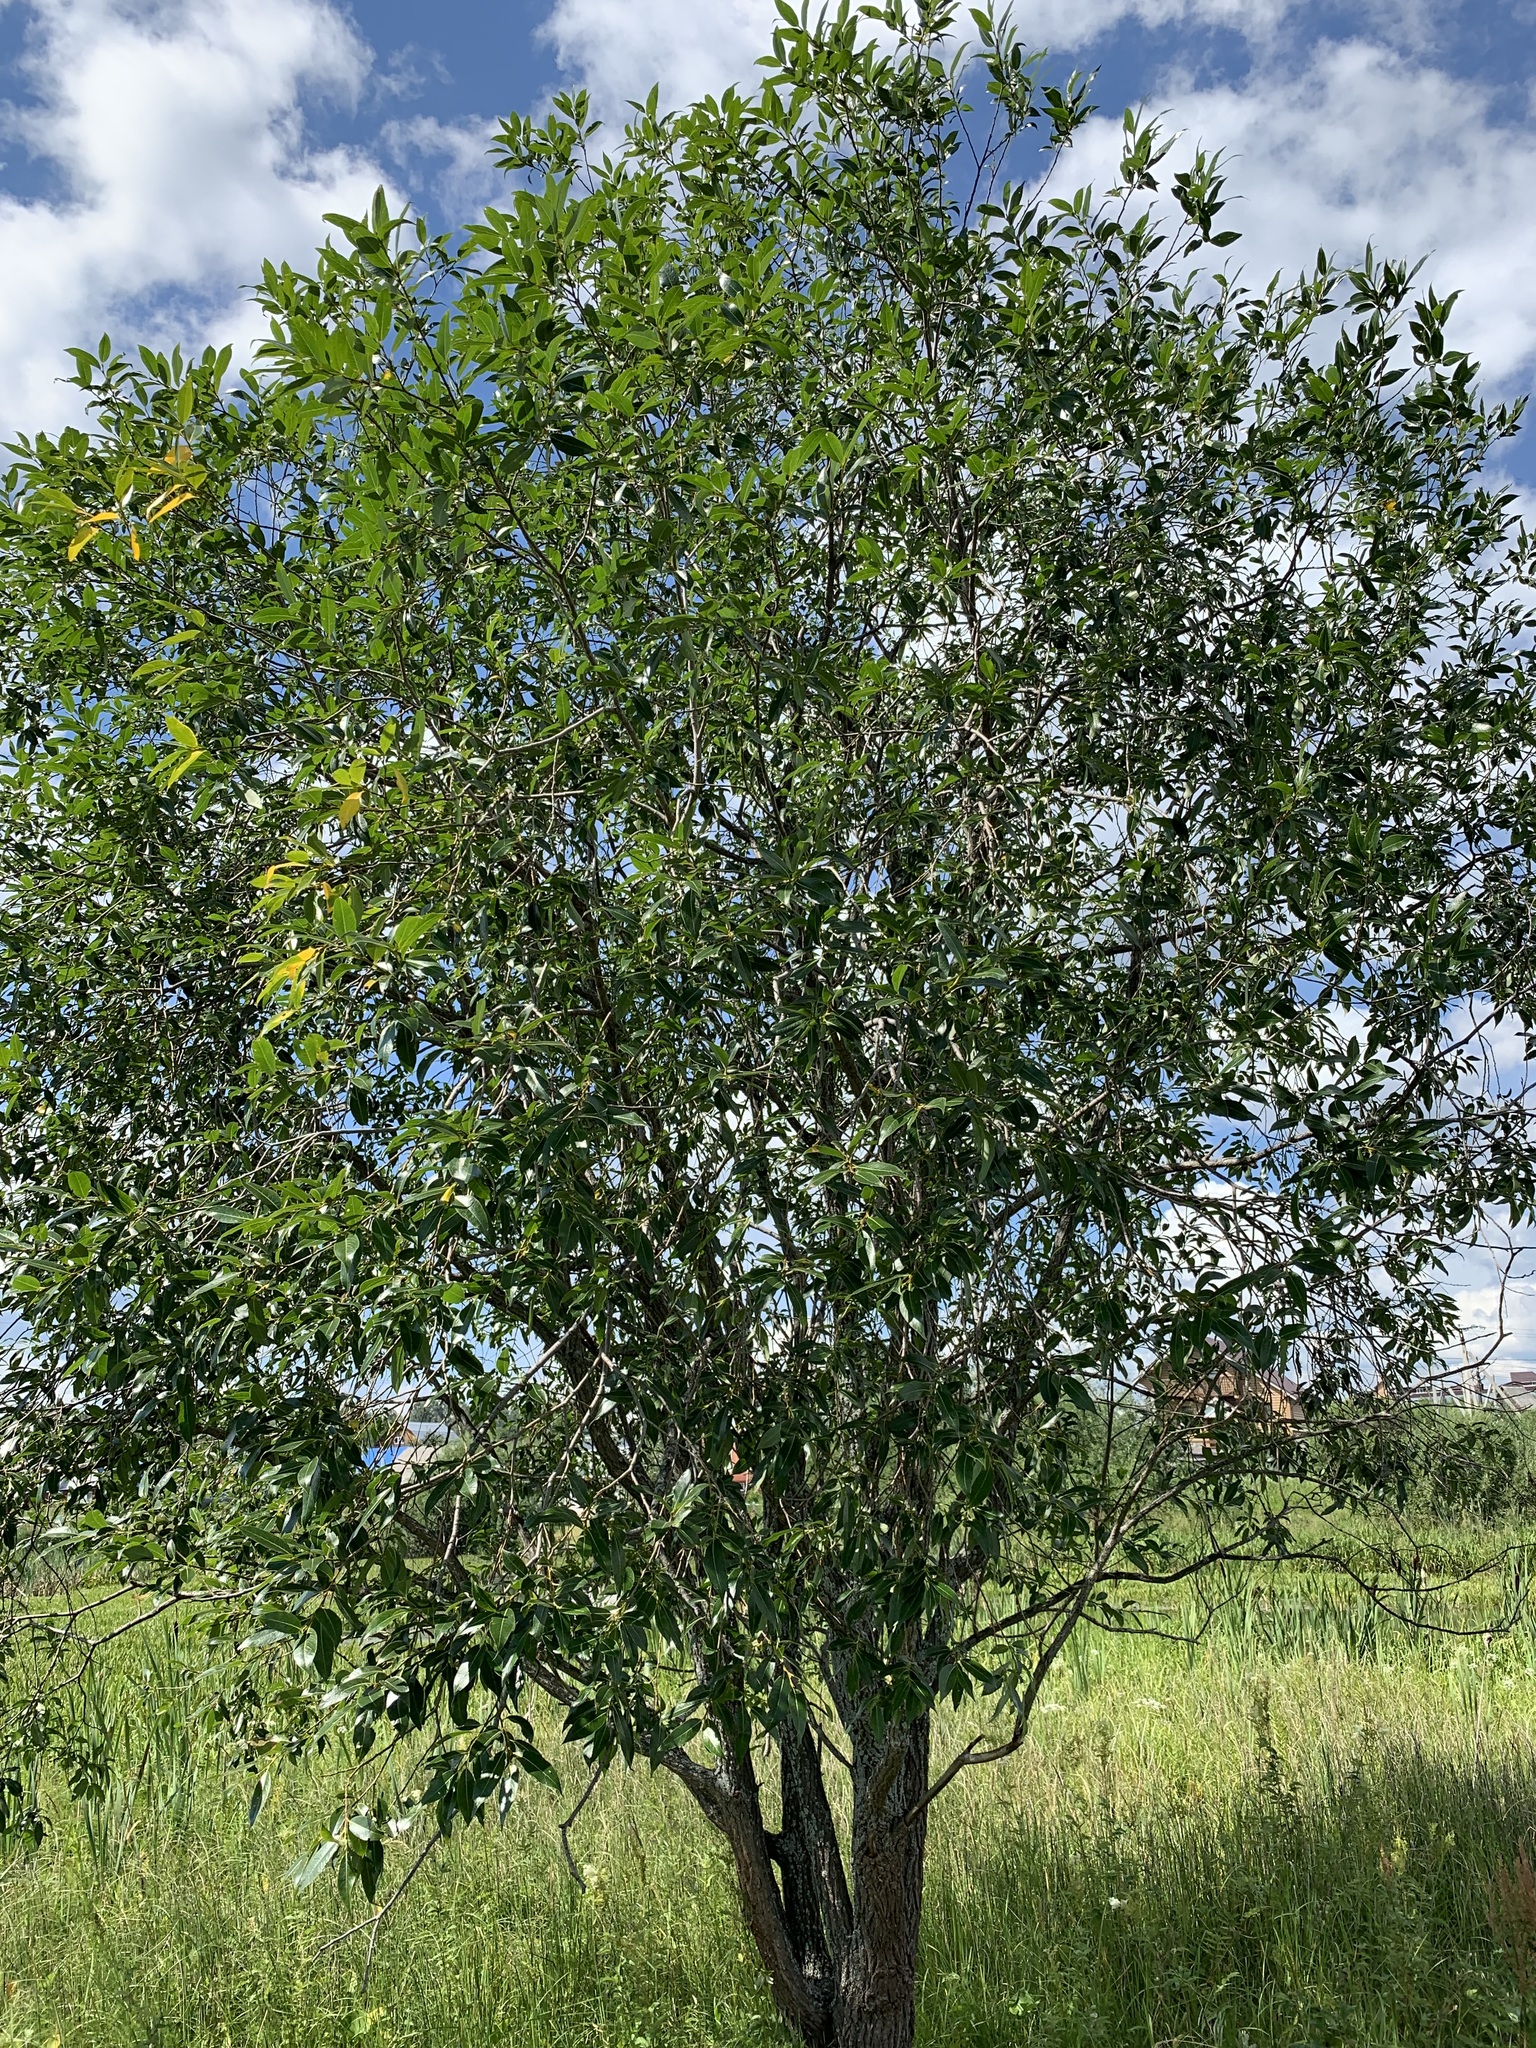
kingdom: Plantae
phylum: Tracheophyta
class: Magnoliopsida
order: Malpighiales
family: Salicaceae
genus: Salix
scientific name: Salix pentandra
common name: Bay willow
